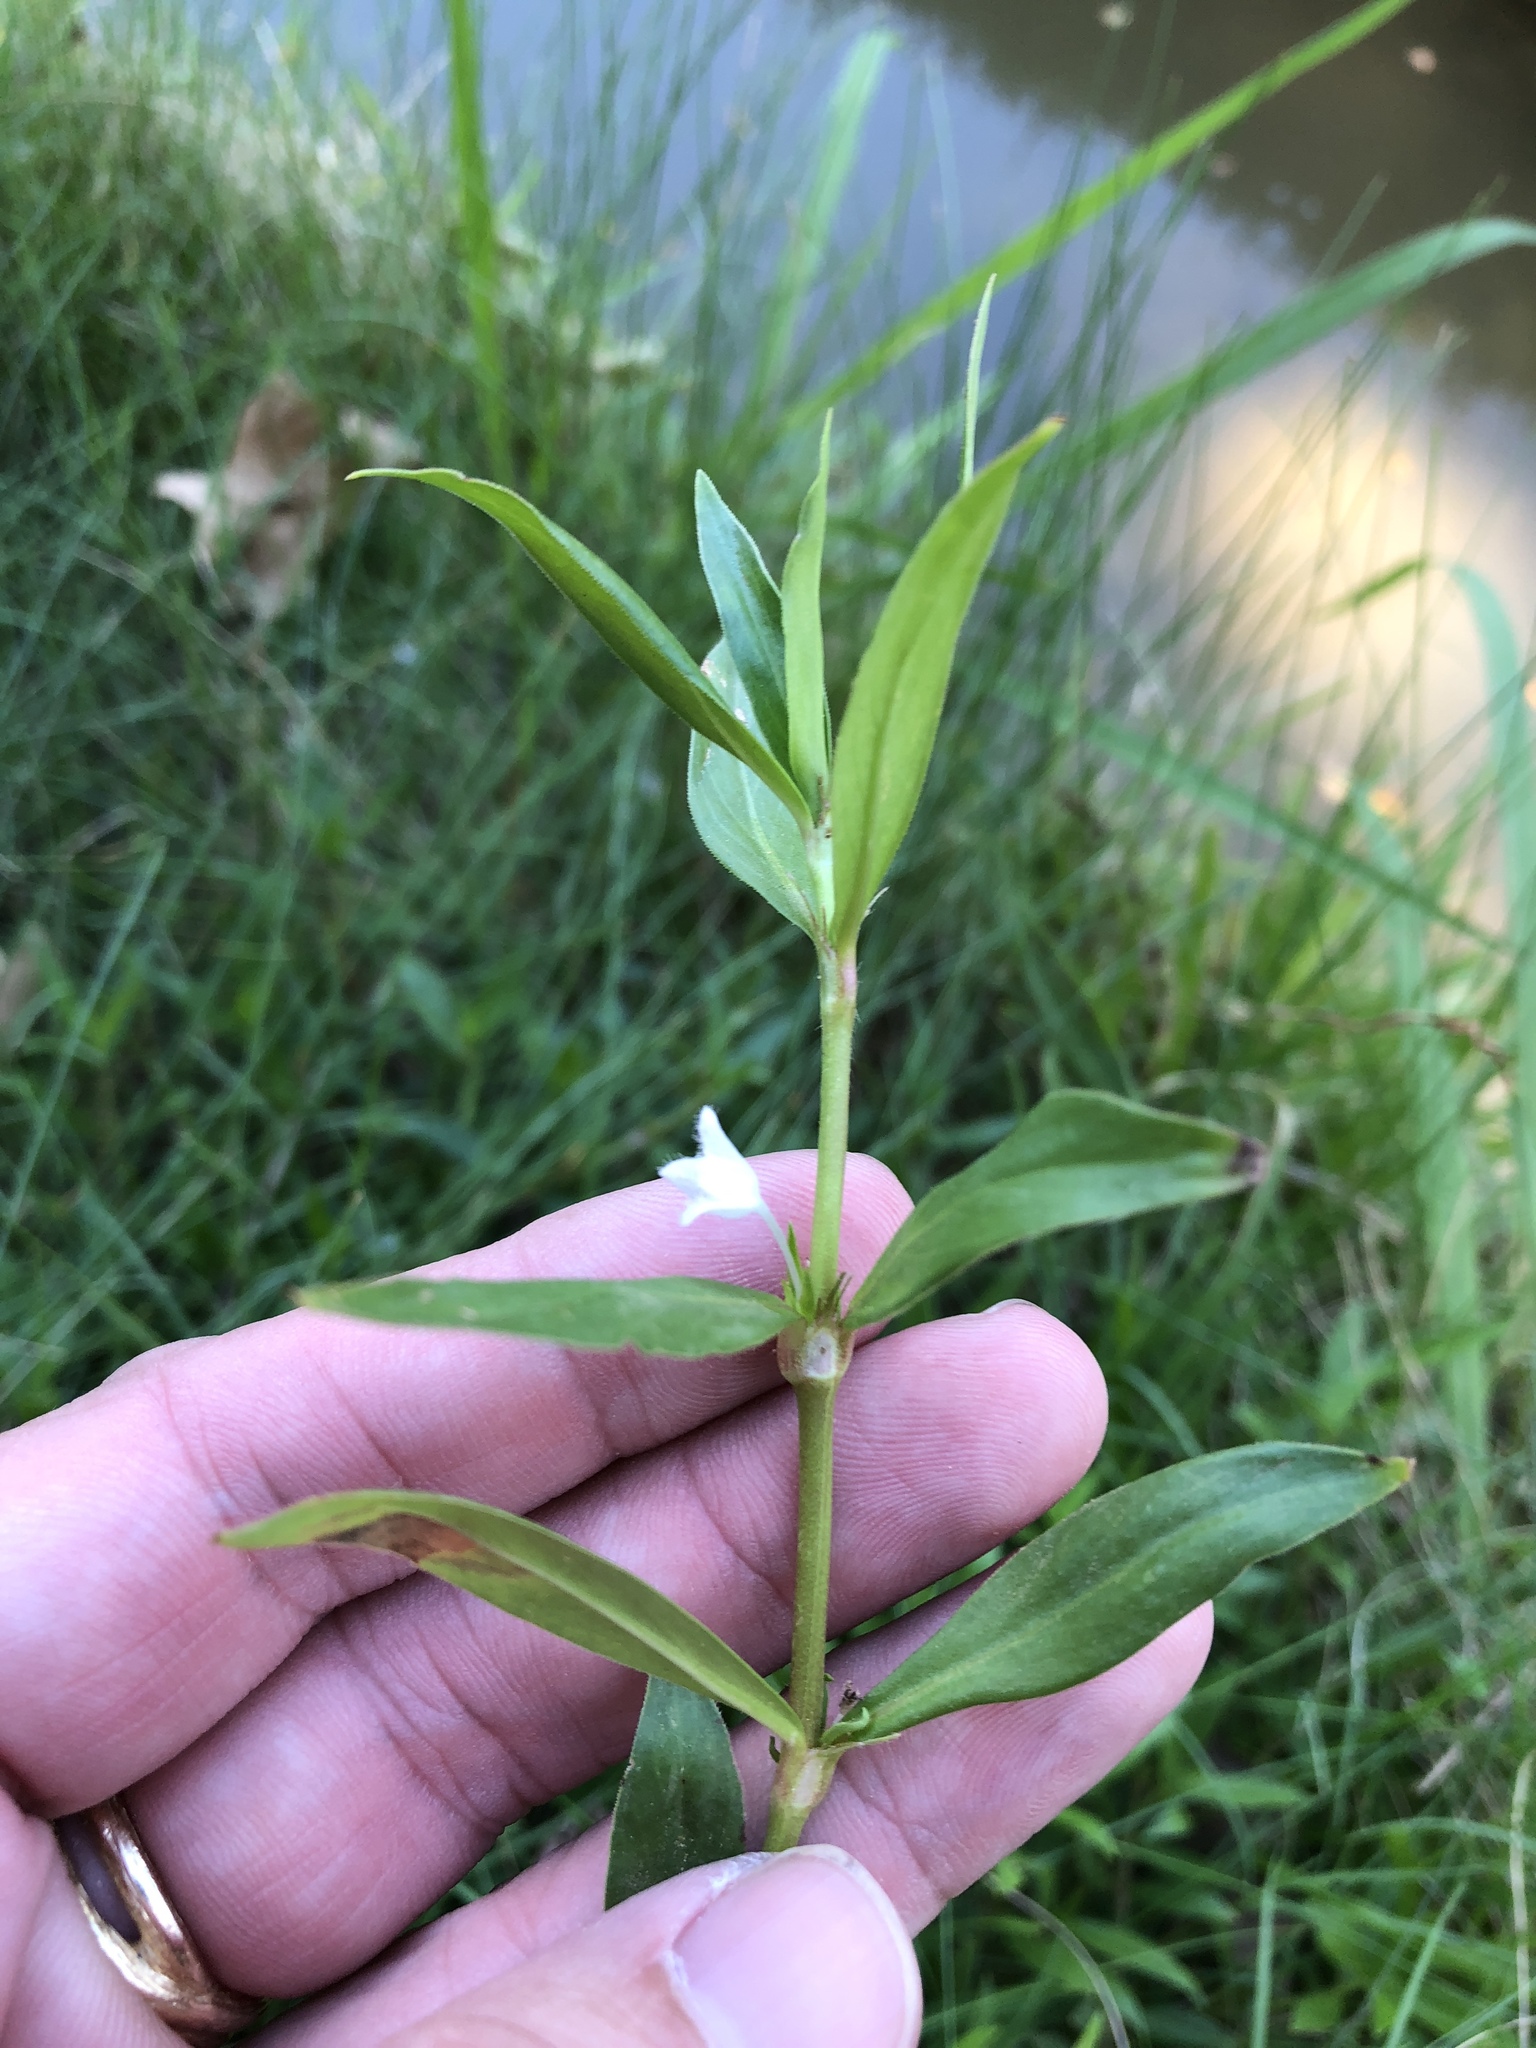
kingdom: Plantae
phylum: Tracheophyta
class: Magnoliopsida
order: Gentianales
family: Rubiaceae
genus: Diodia
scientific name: Diodia virginiana
